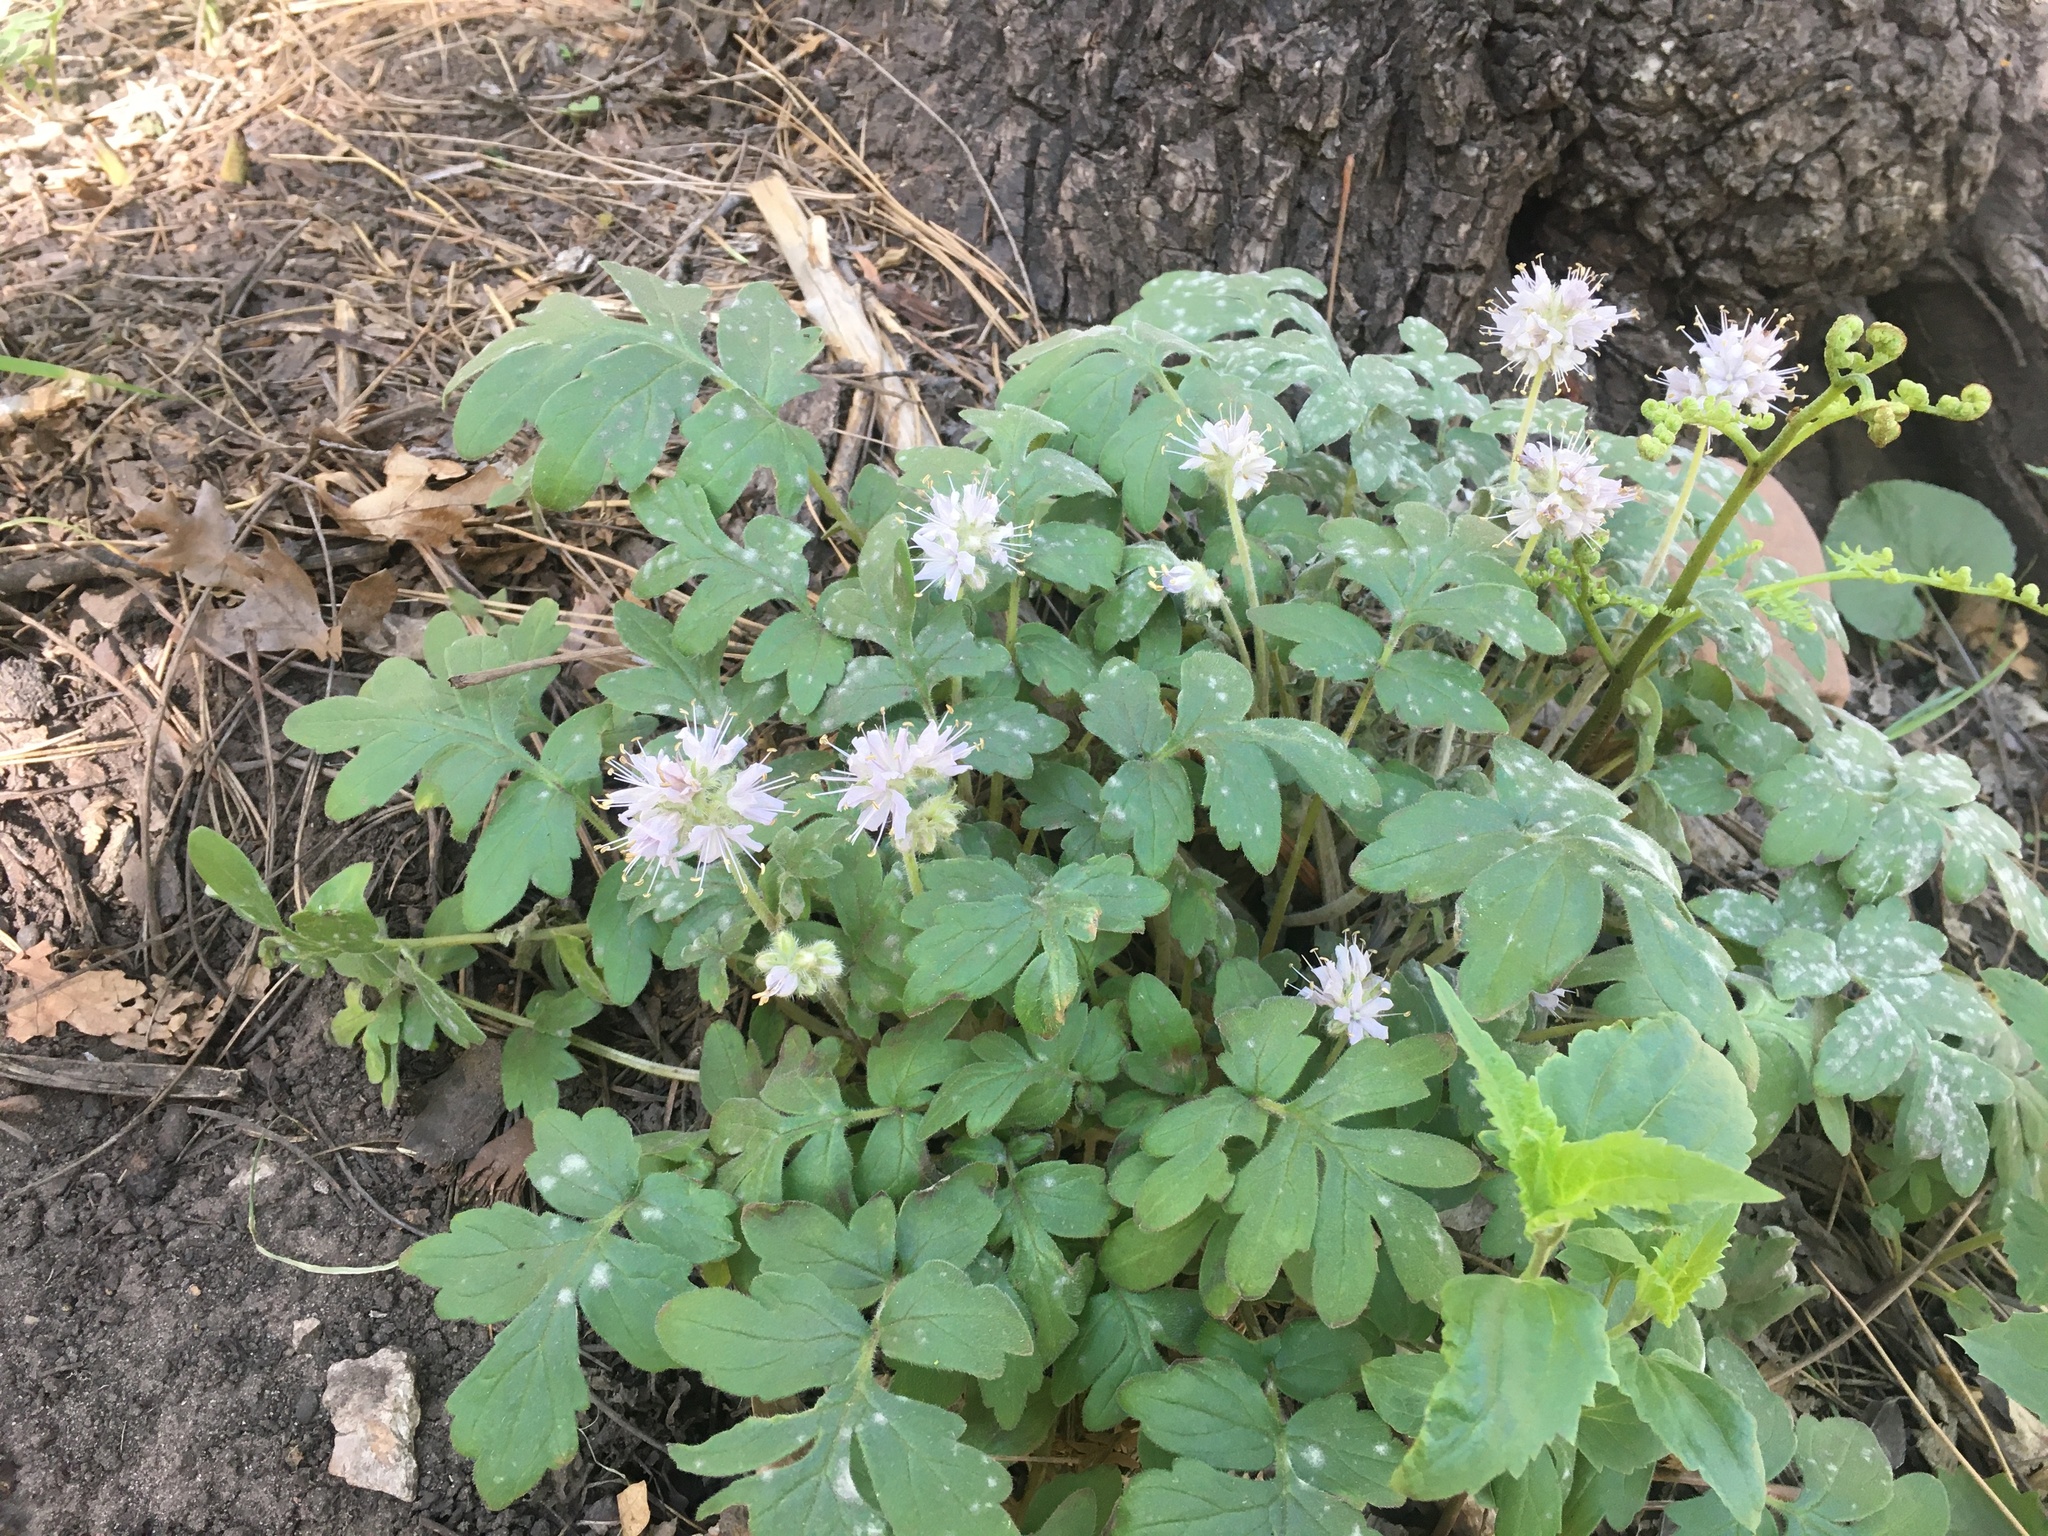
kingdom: Plantae
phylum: Tracheophyta
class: Magnoliopsida
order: Boraginales
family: Hydrophyllaceae
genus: Hydrophyllum
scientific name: Hydrophyllum occidentale
